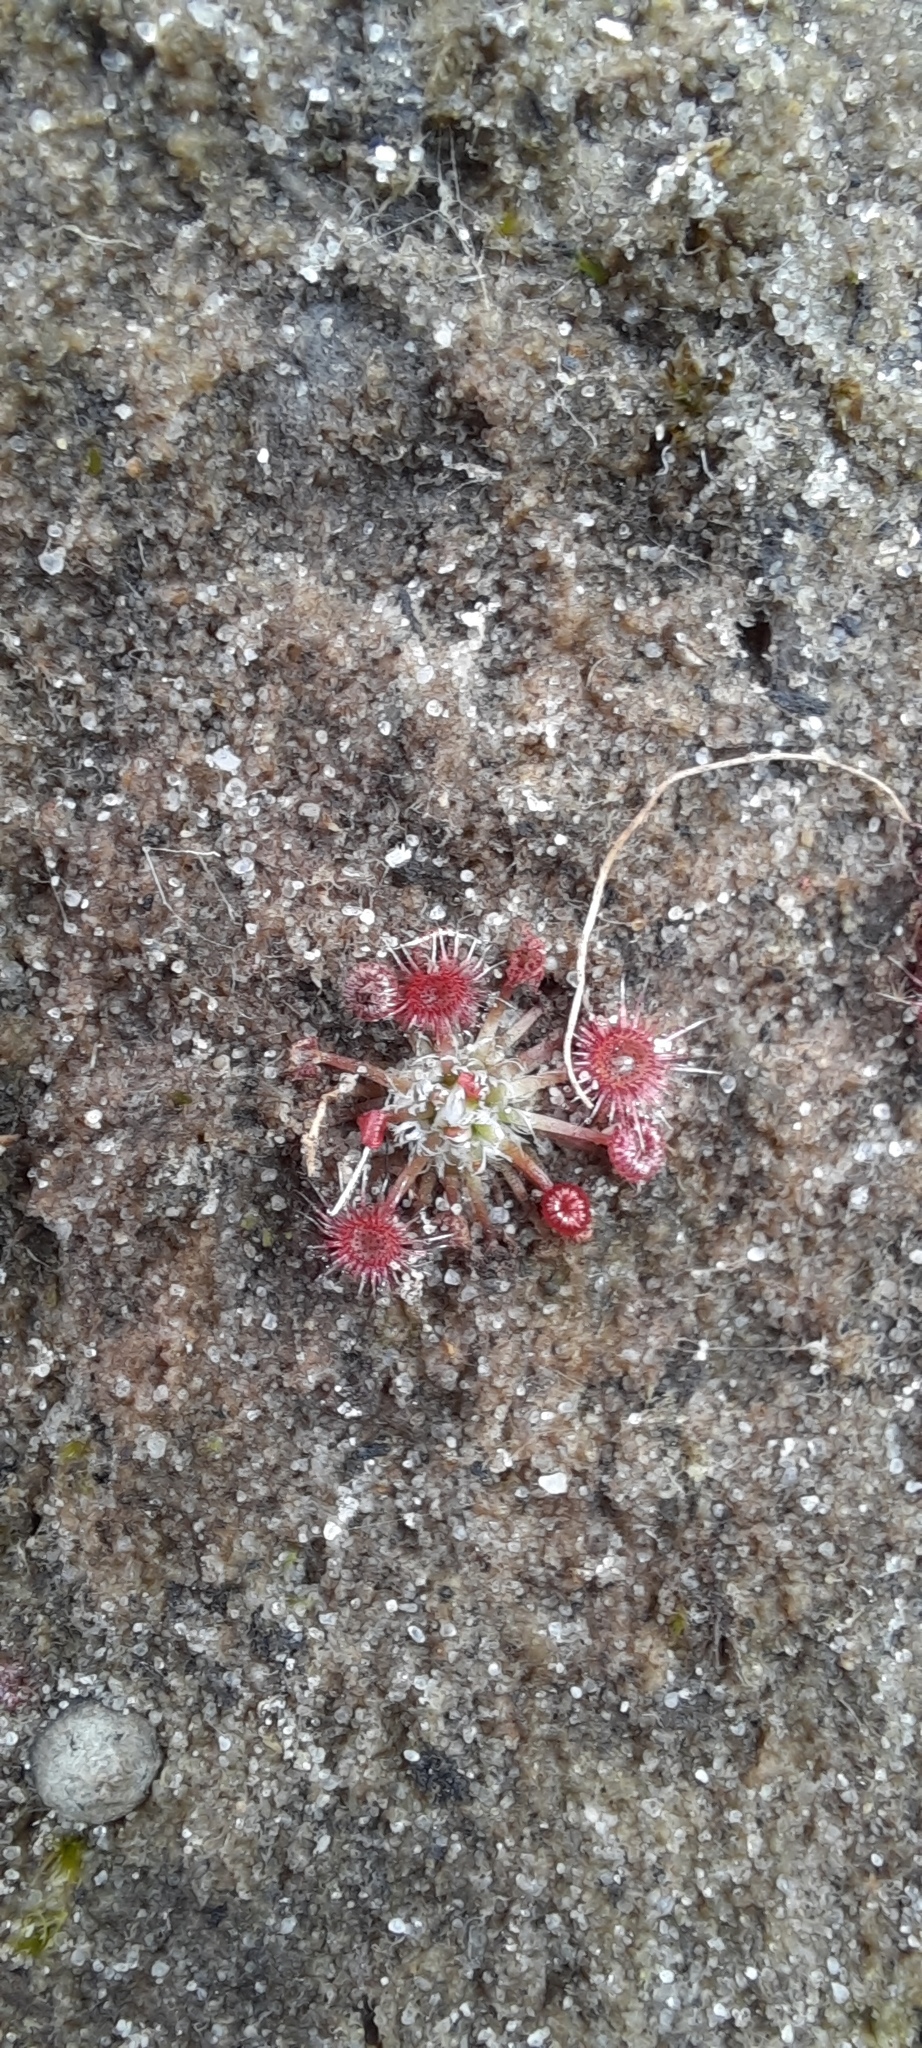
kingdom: Plantae
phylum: Tracheophyta
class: Magnoliopsida
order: Caryophyllales
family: Droseraceae
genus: Drosera
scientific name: Drosera pygmaea
